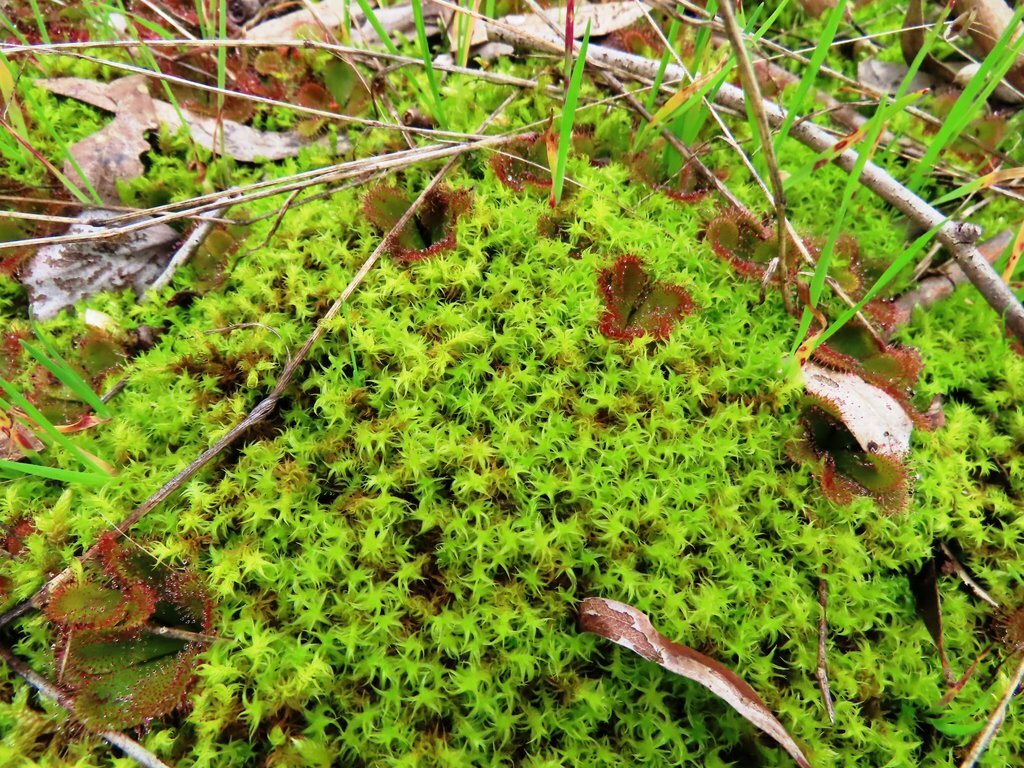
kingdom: Plantae
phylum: Bryophyta
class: Bryopsida
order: Pottiales
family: Pottiaceae
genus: Triquetrella
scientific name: Triquetrella papillata
